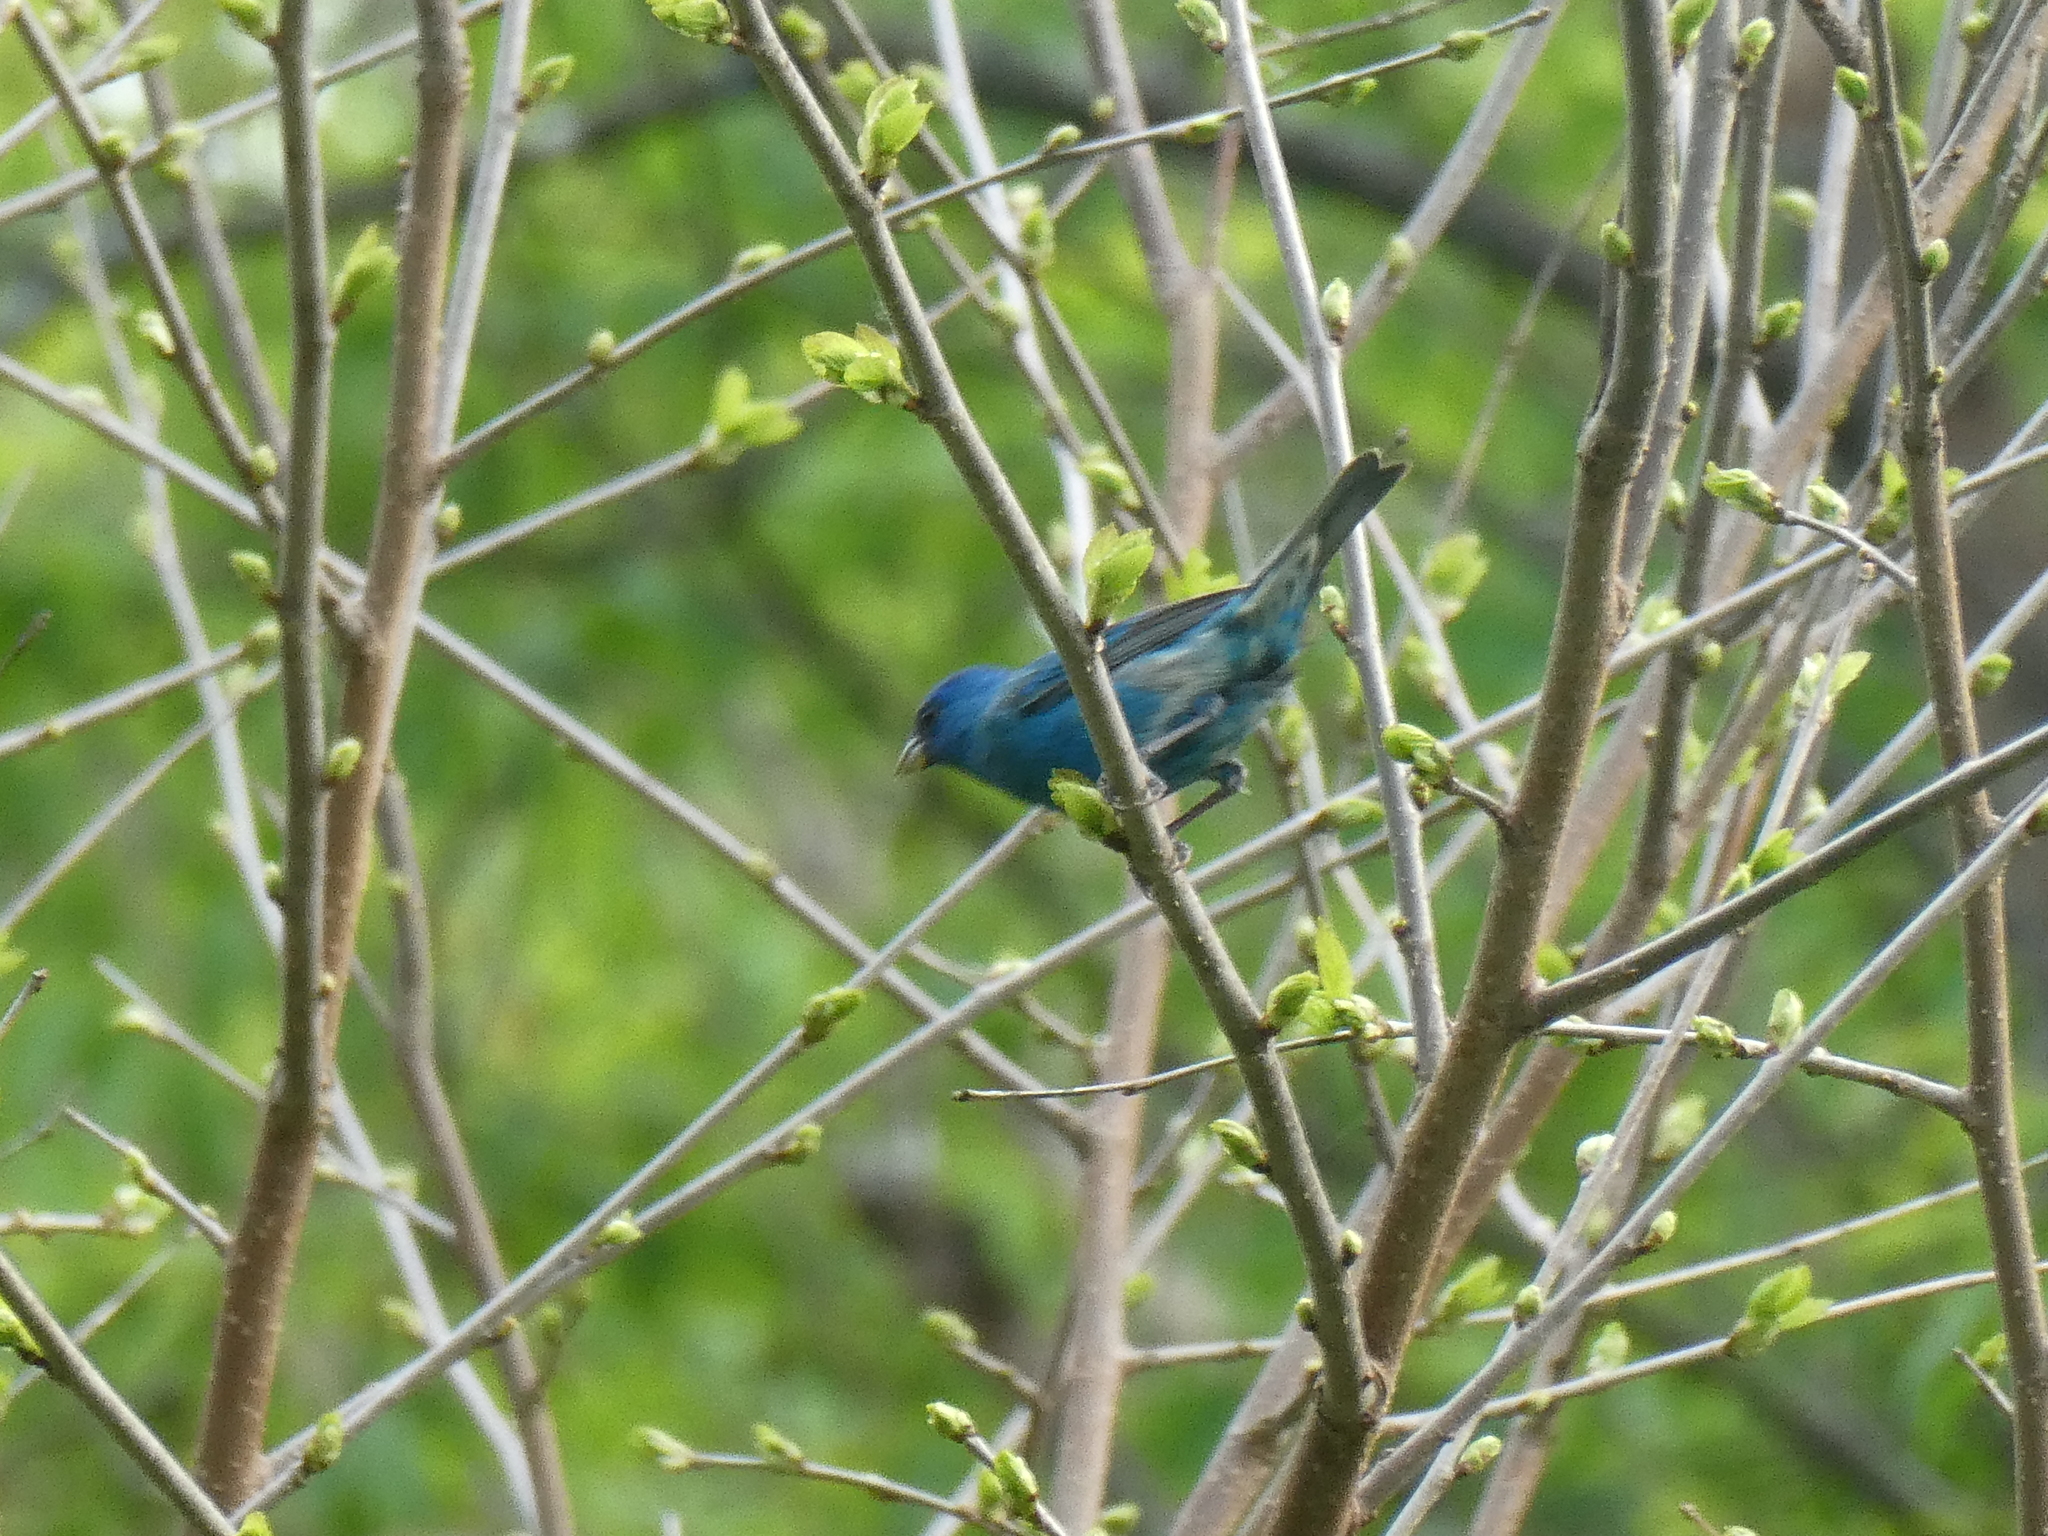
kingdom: Animalia
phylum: Chordata
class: Aves
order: Passeriformes
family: Cardinalidae
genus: Passerina
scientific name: Passerina cyanea
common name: Indigo bunting
